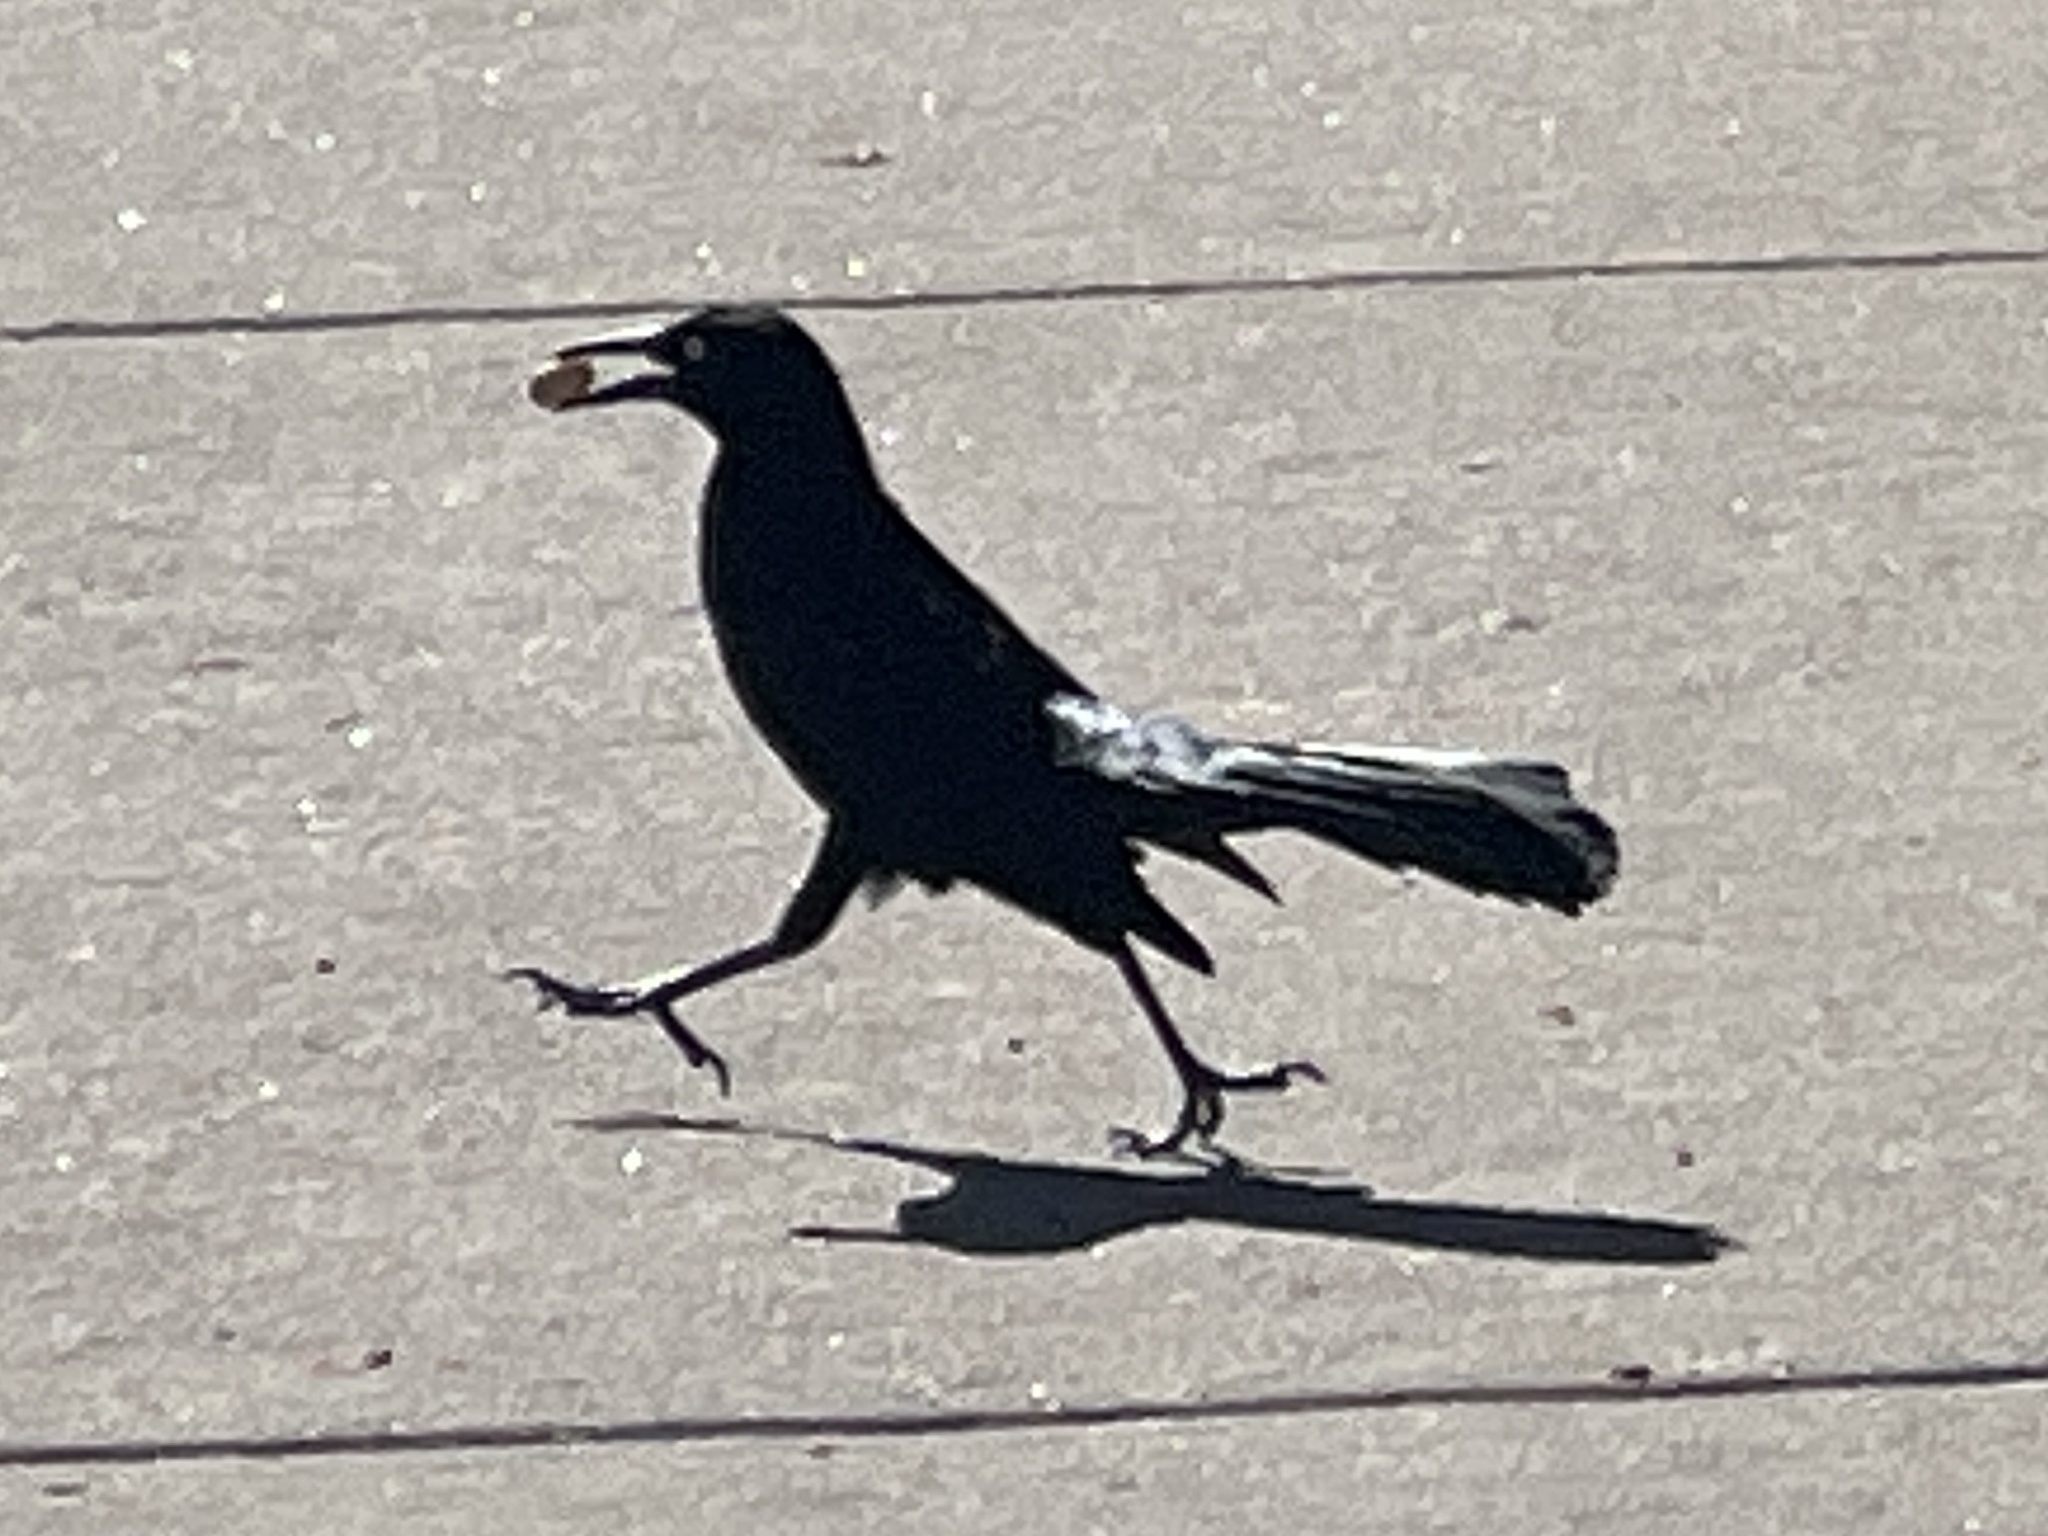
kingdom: Animalia
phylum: Chordata
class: Aves
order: Passeriformes
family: Icteridae
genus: Quiscalus
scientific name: Quiscalus mexicanus
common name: Great-tailed grackle
